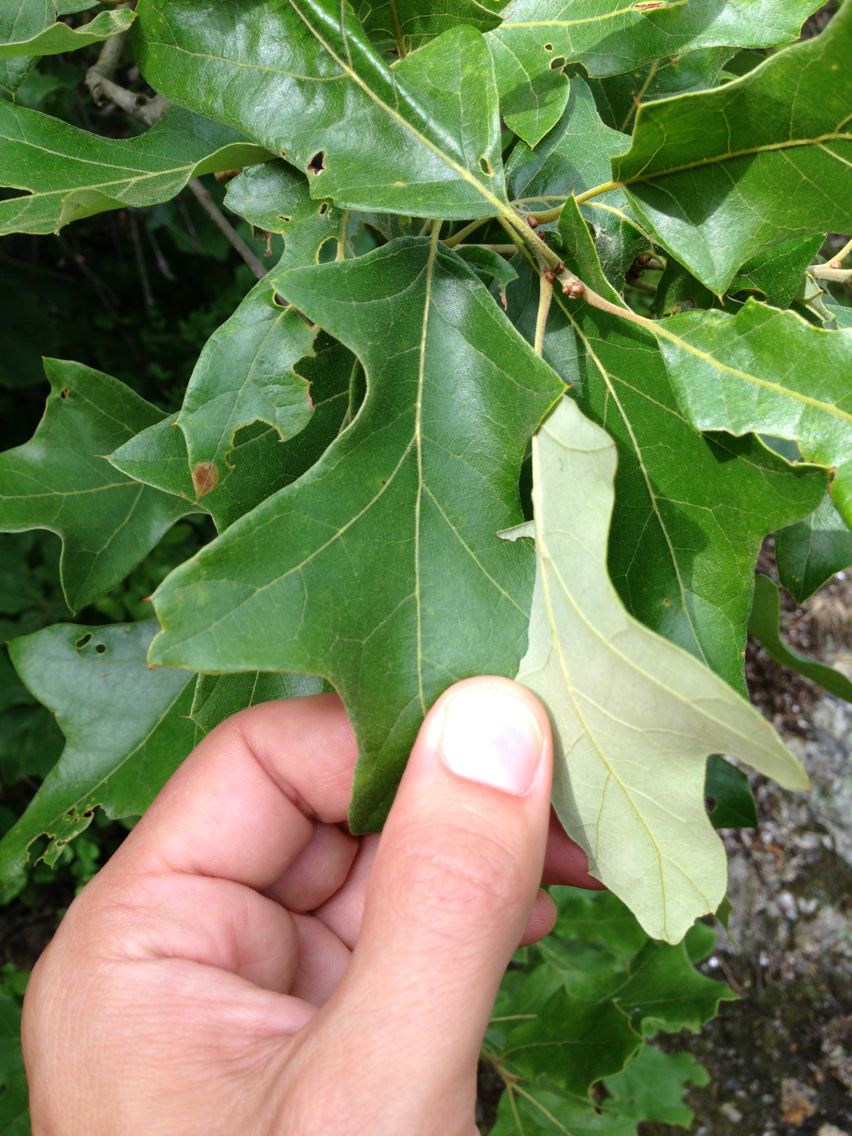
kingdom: Plantae
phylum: Tracheophyta
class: Magnoliopsida
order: Fagales
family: Fagaceae
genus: Quercus
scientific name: Quercus ilicifolia
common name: Bear oak
